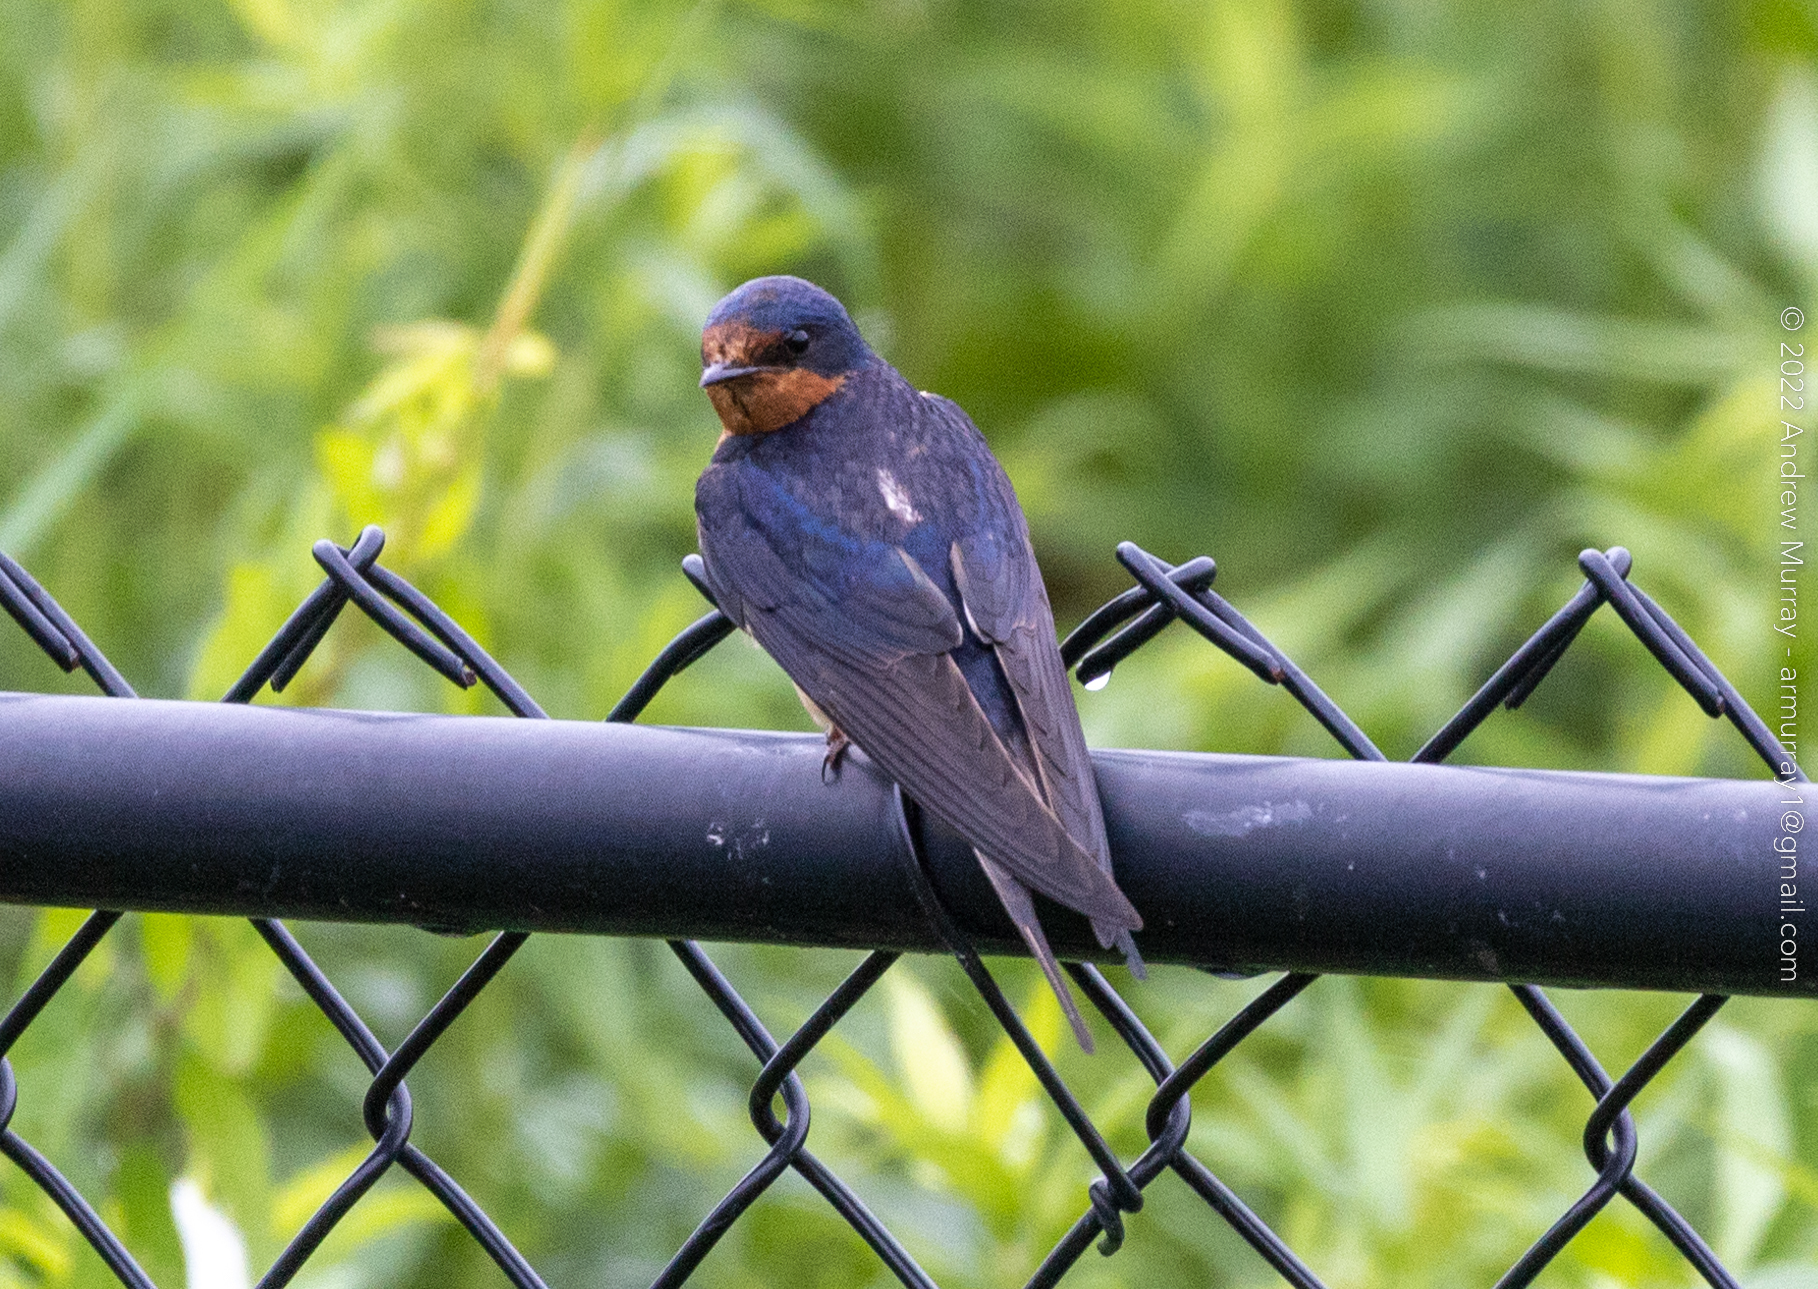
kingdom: Animalia
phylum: Chordata
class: Aves
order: Passeriformes
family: Hirundinidae
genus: Hirundo
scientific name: Hirundo rustica
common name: Barn swallow
